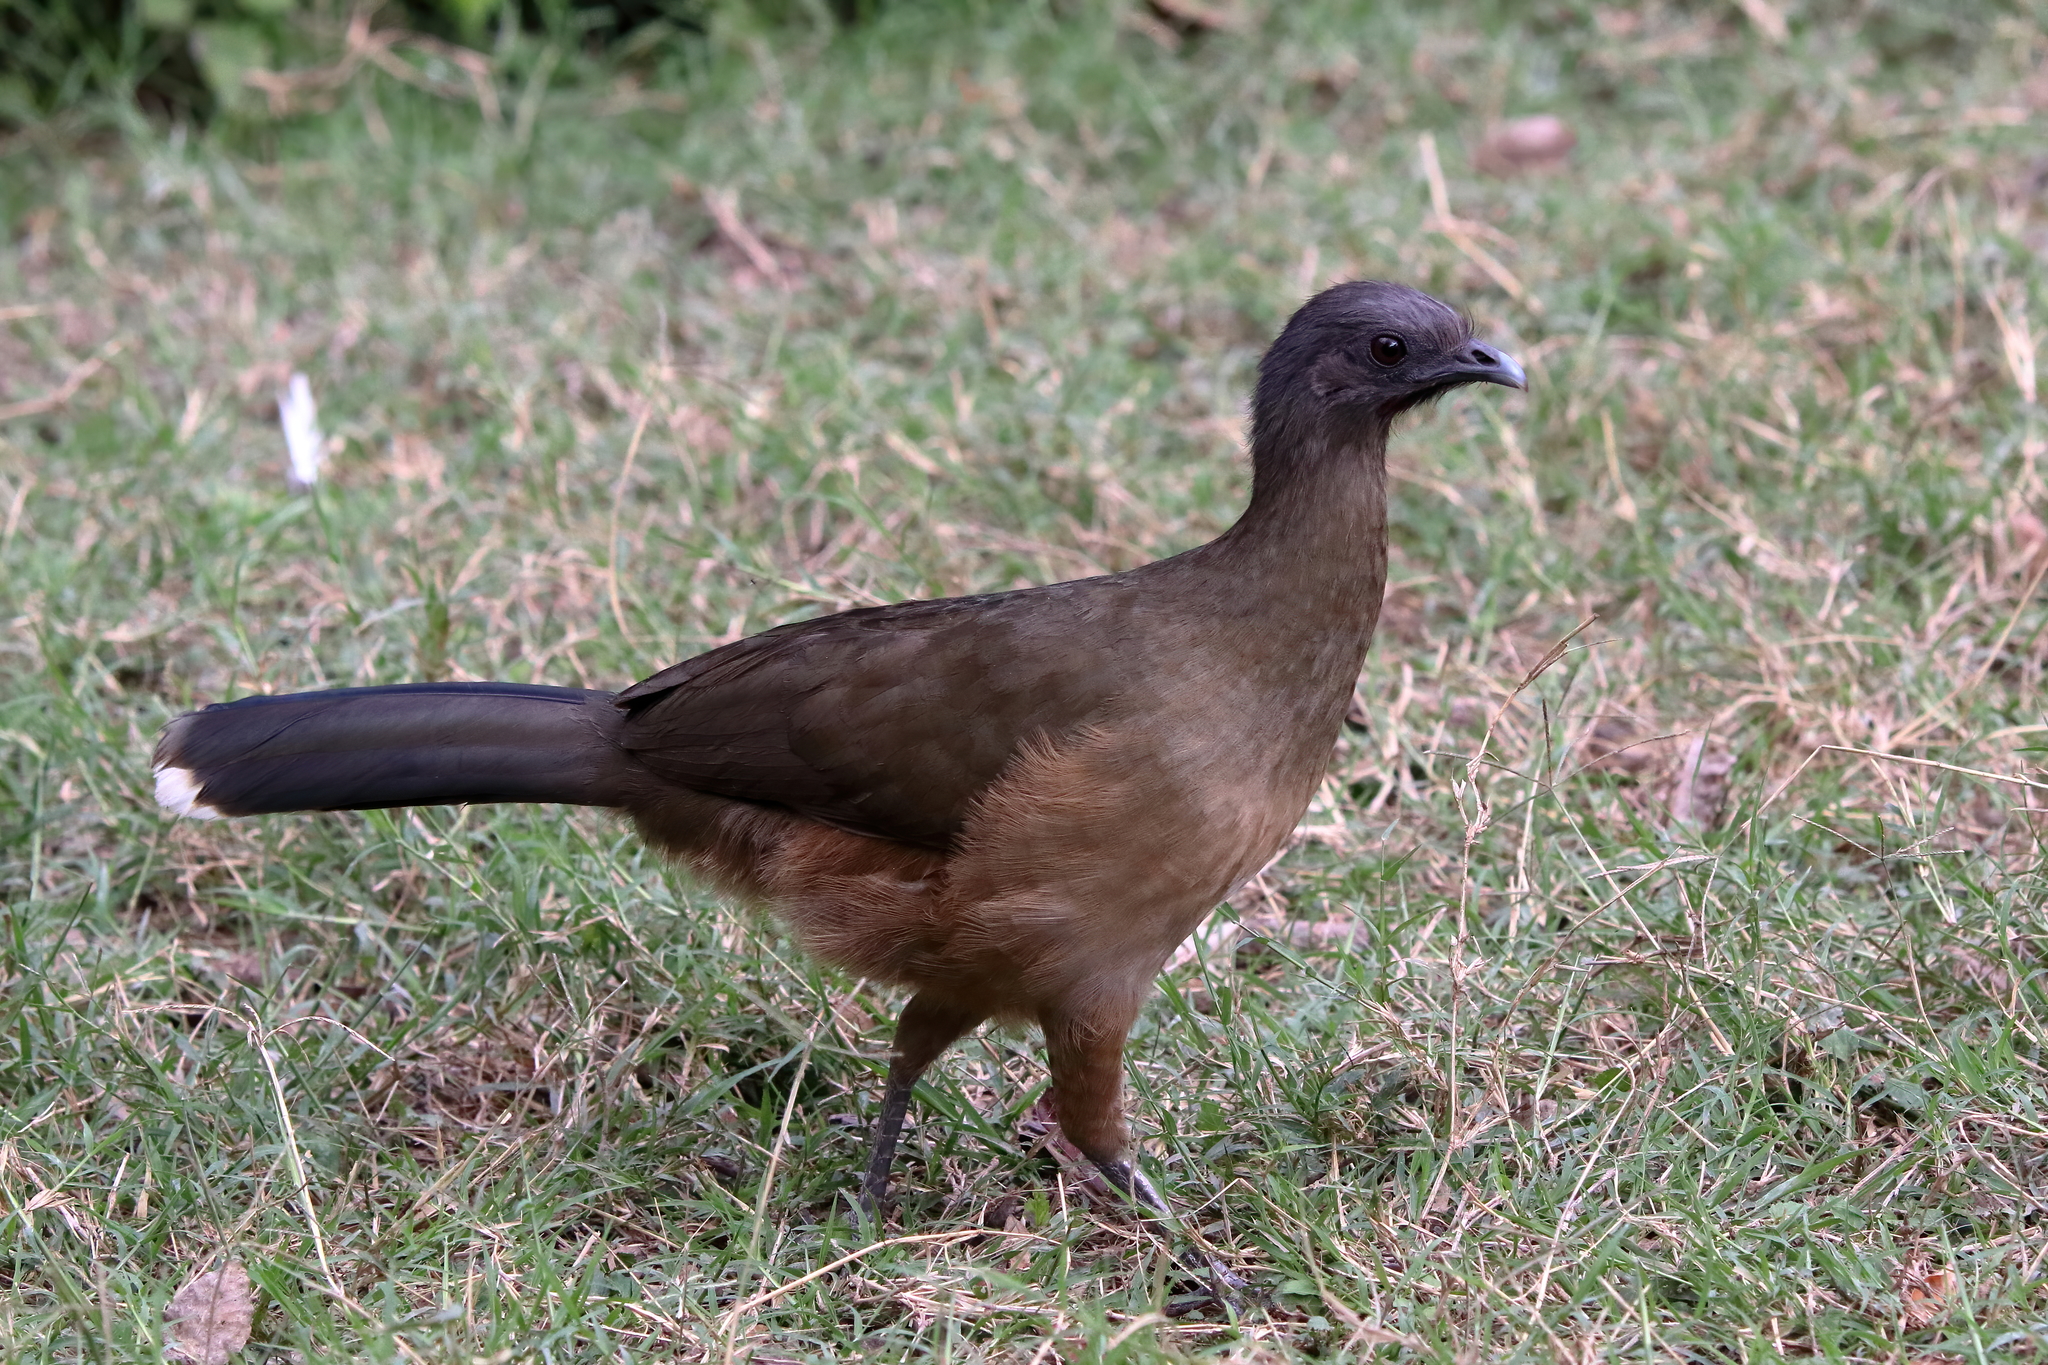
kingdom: Animalia
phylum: Chordata
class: Aves
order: Galliformes
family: Cracidae
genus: Ortalis
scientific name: Ortalis vetula
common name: Plain chachalaca
